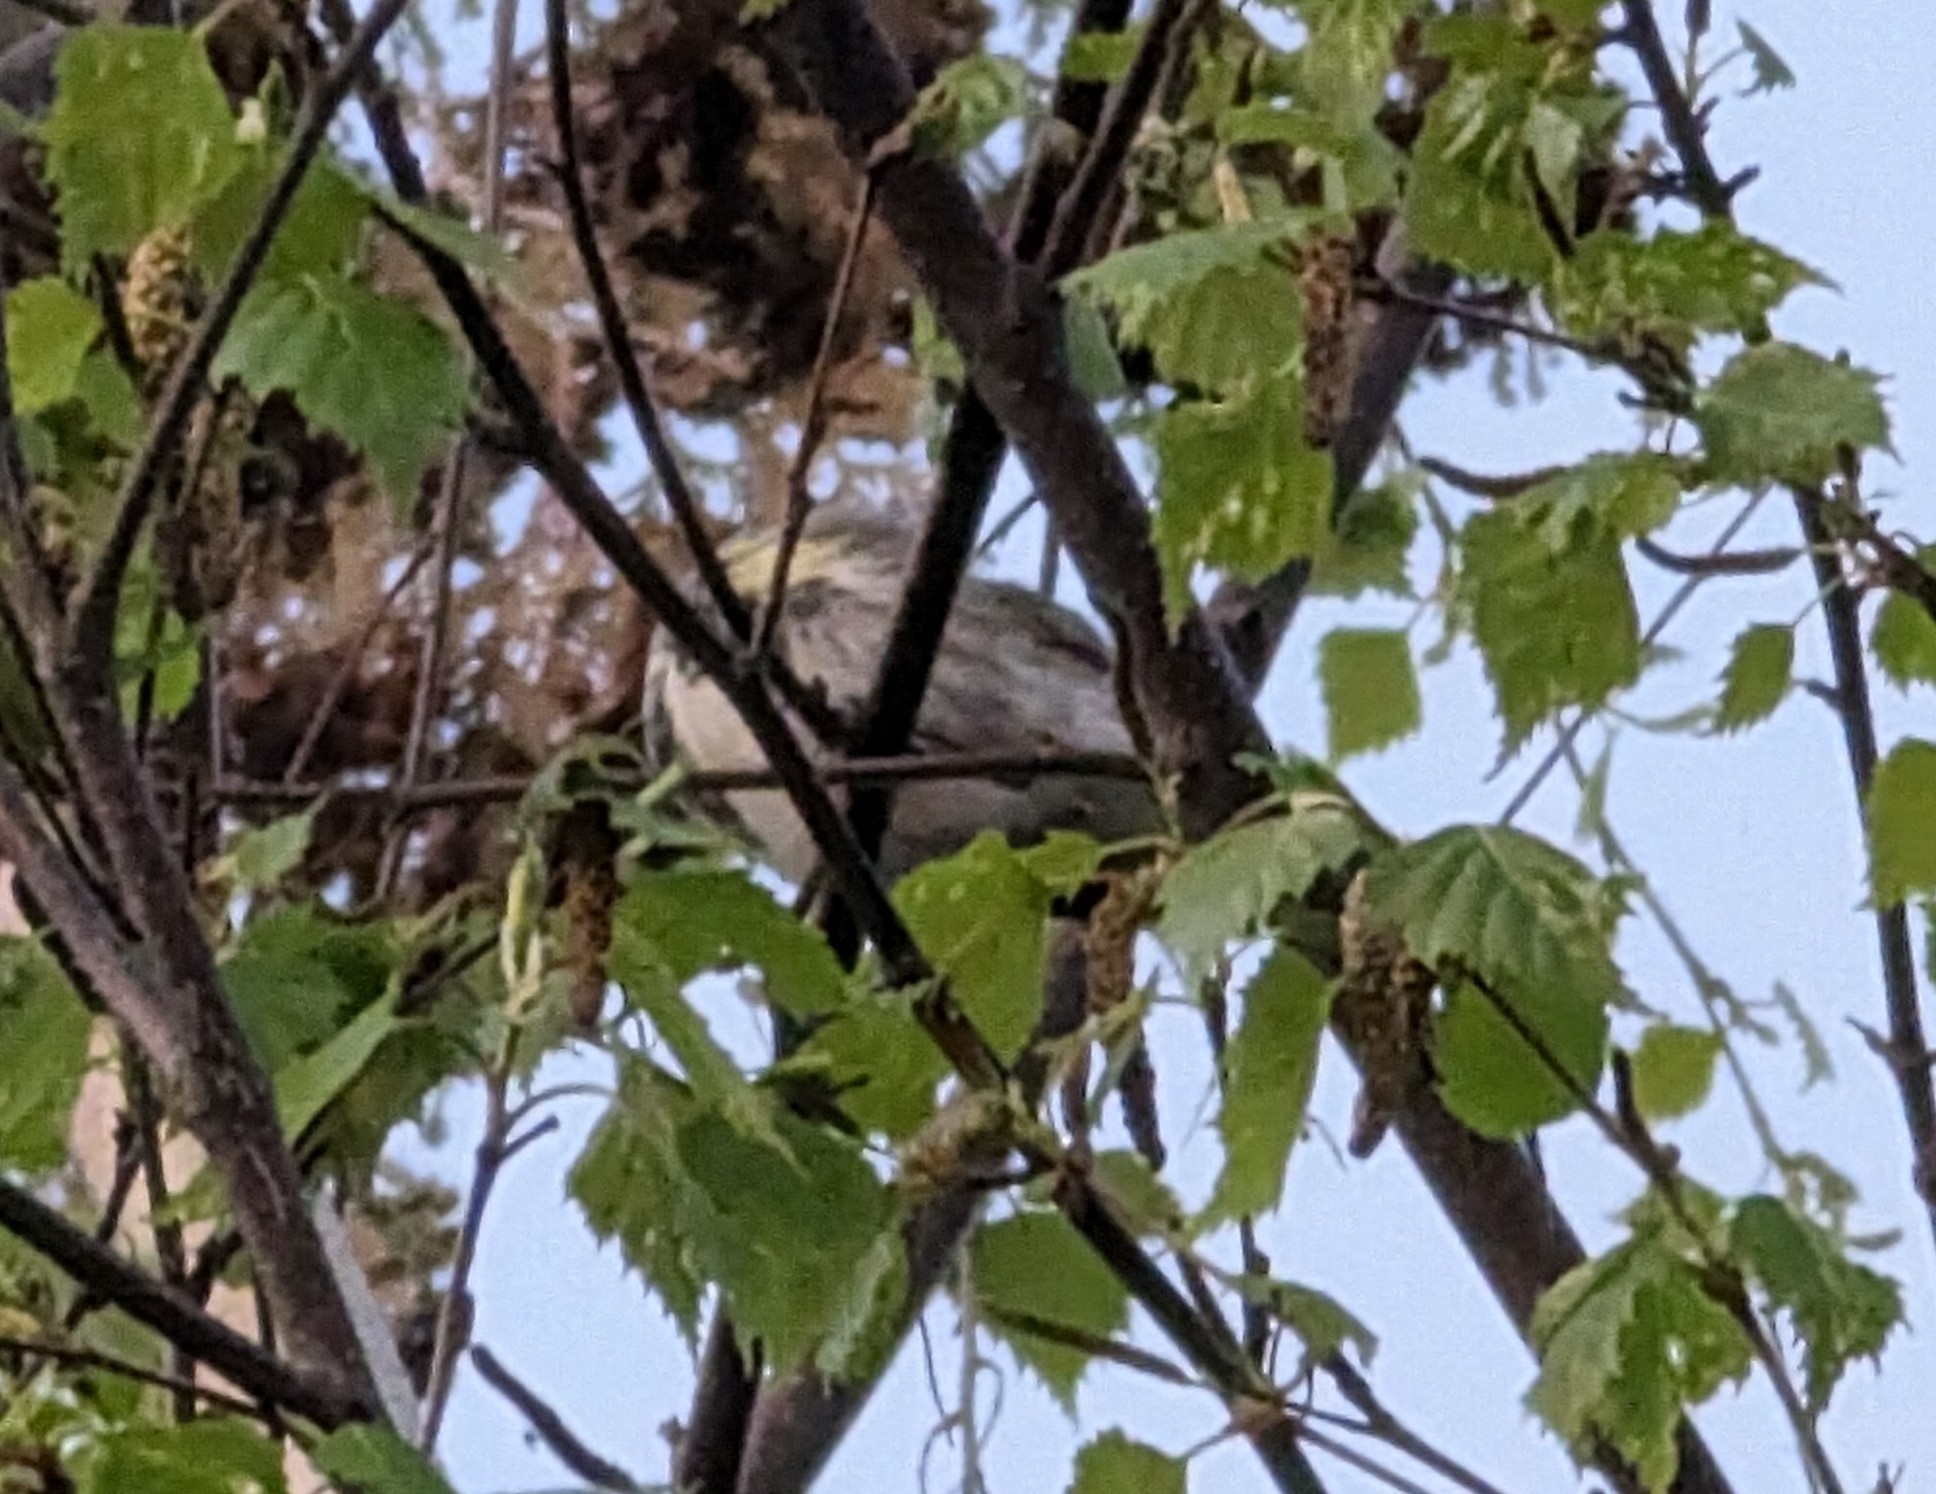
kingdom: Animalia
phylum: Chordata
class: Aves
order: Passeriformes
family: Parulidae
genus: Setophaga
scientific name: Setophaga coronata
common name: Myrtle warbler
